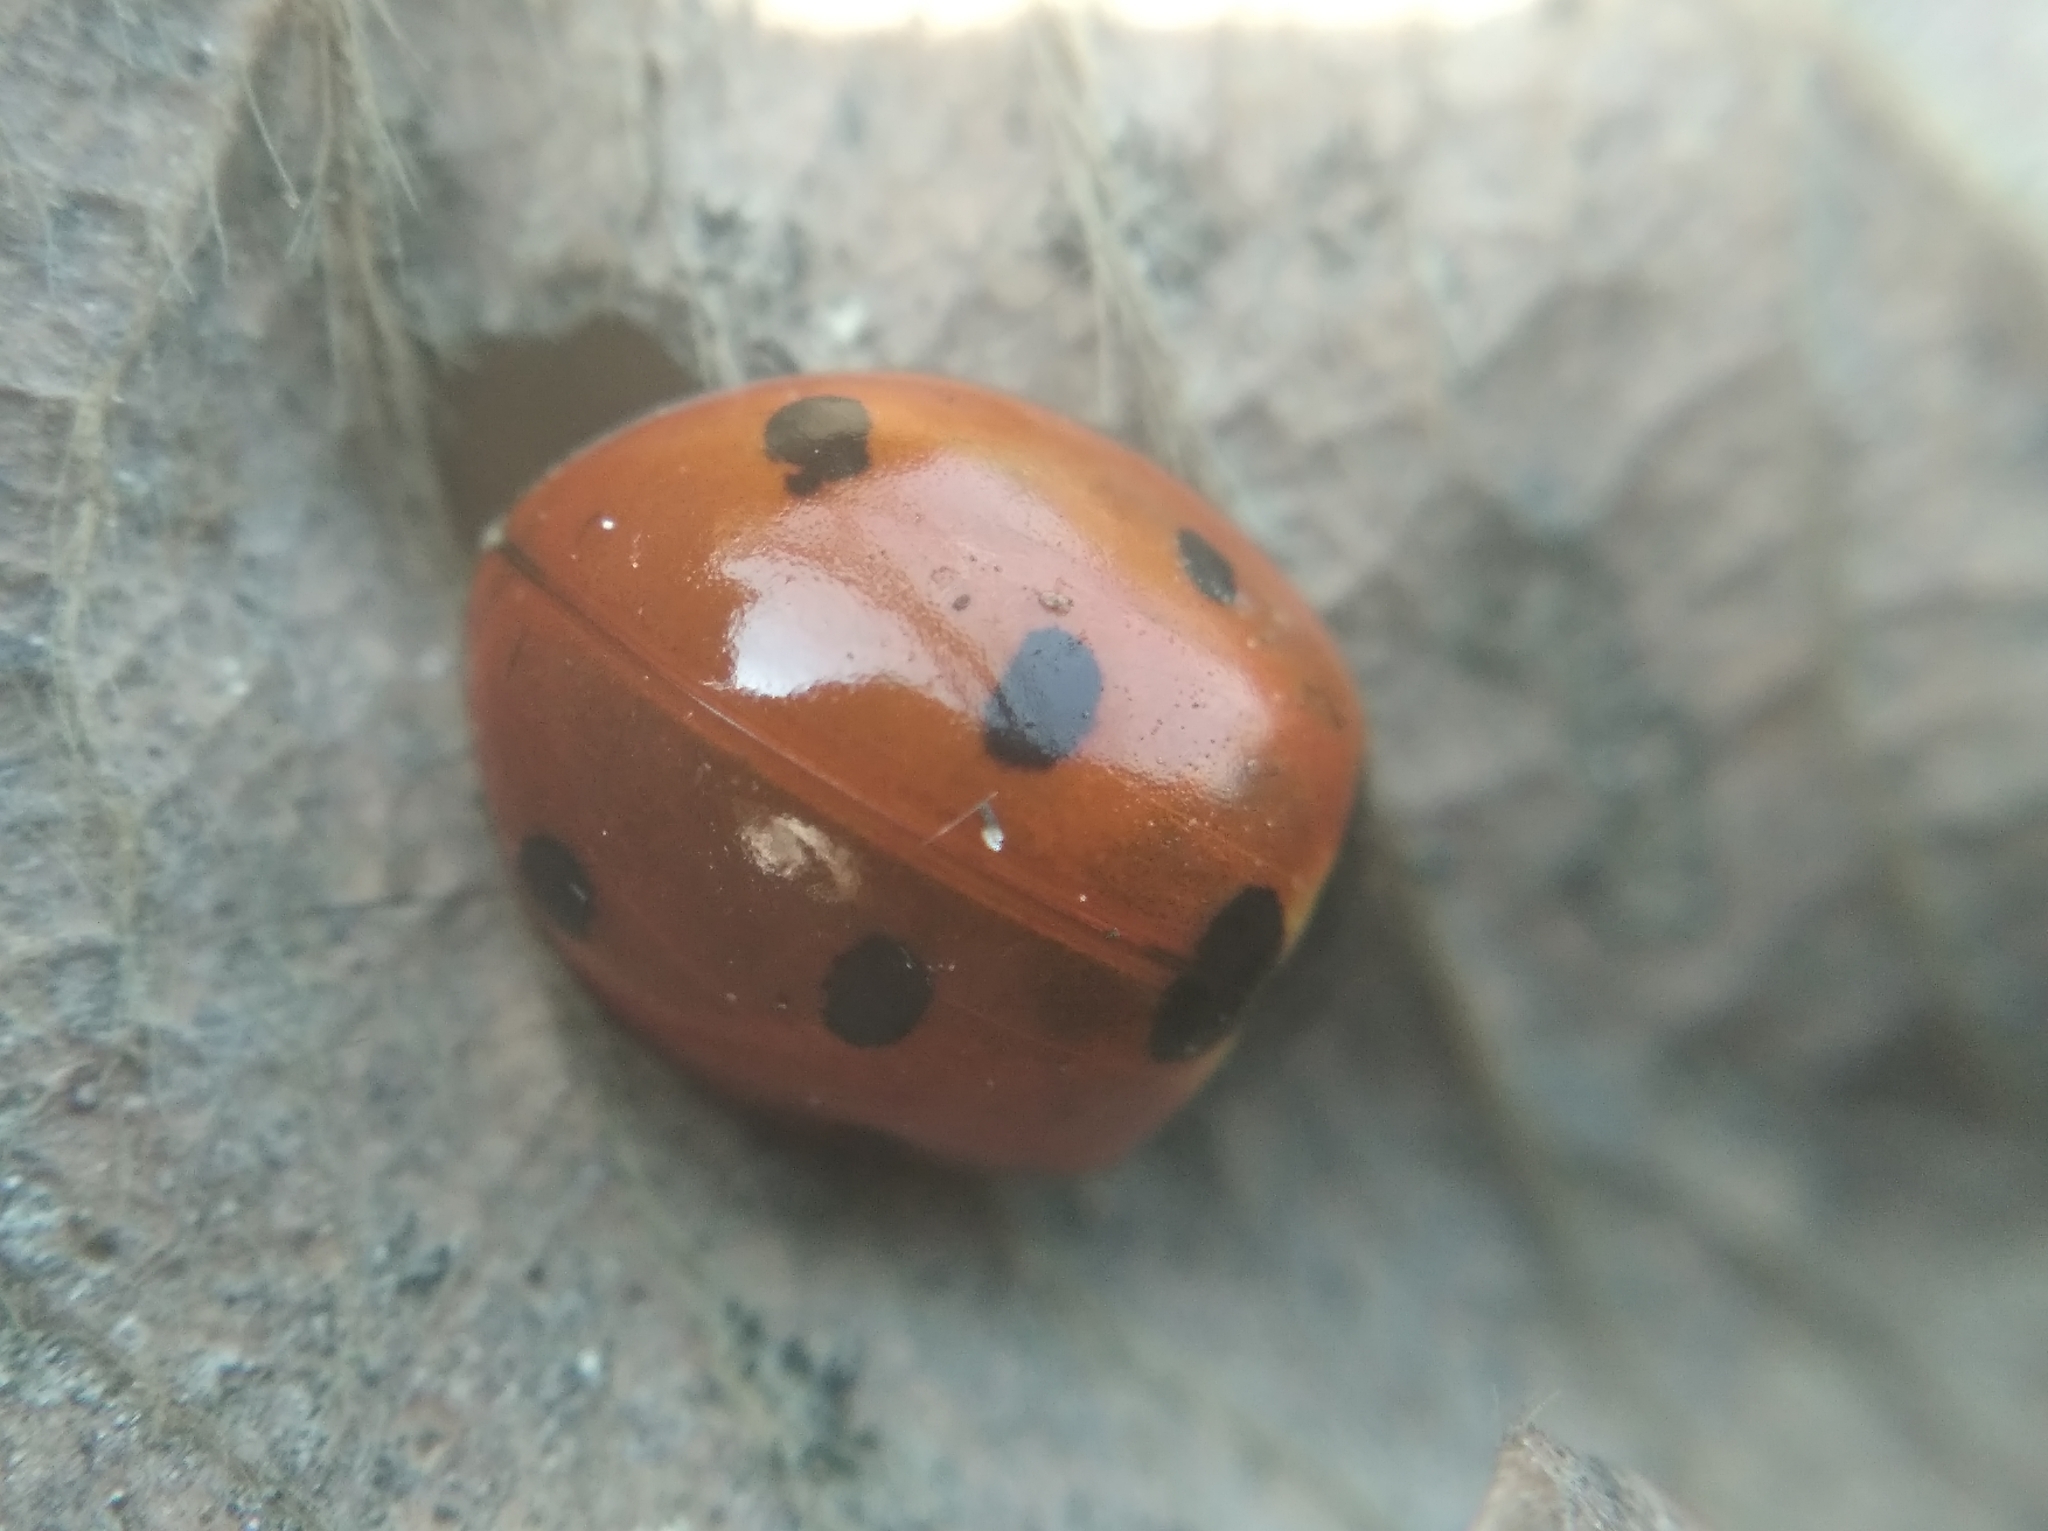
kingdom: Animalia
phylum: Arthropoda
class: Insecta
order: Coleoptera
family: Coccinellidae
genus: Coccinella
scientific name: Coccinella septempunctata
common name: Sevenspotted lady beetle
